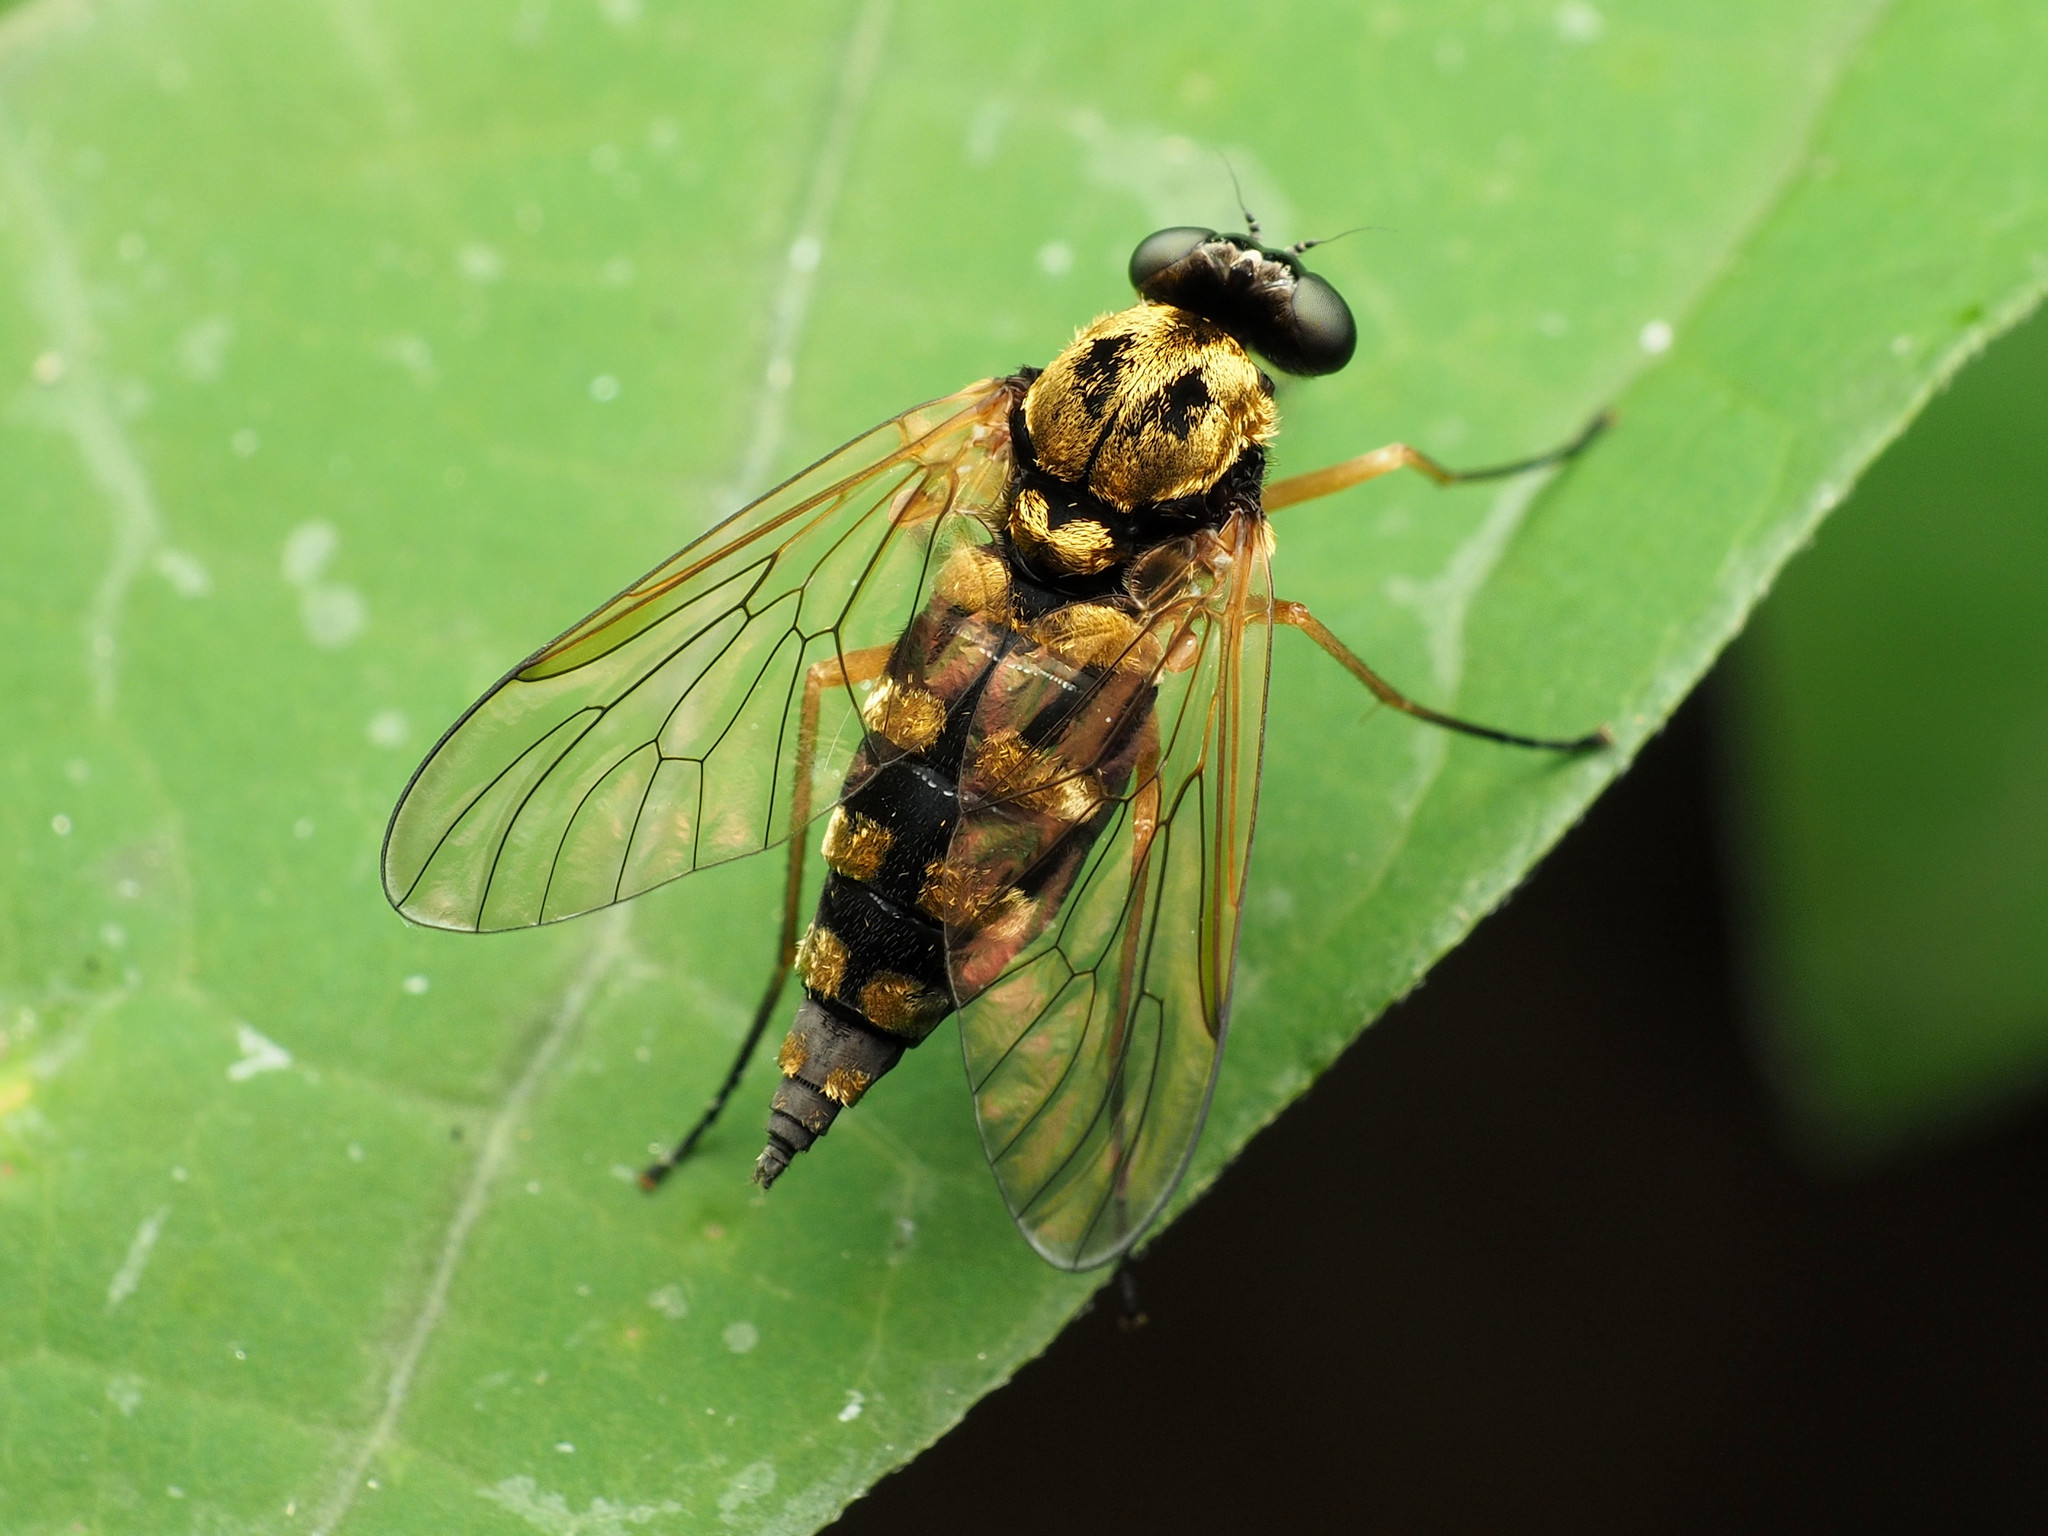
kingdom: Animalia
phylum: Arthropoda
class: Insecta
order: Diptera
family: Rhagionidae
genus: Chrysopilus
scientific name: Chrysopilus ornatus
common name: Ornate snipe fly
